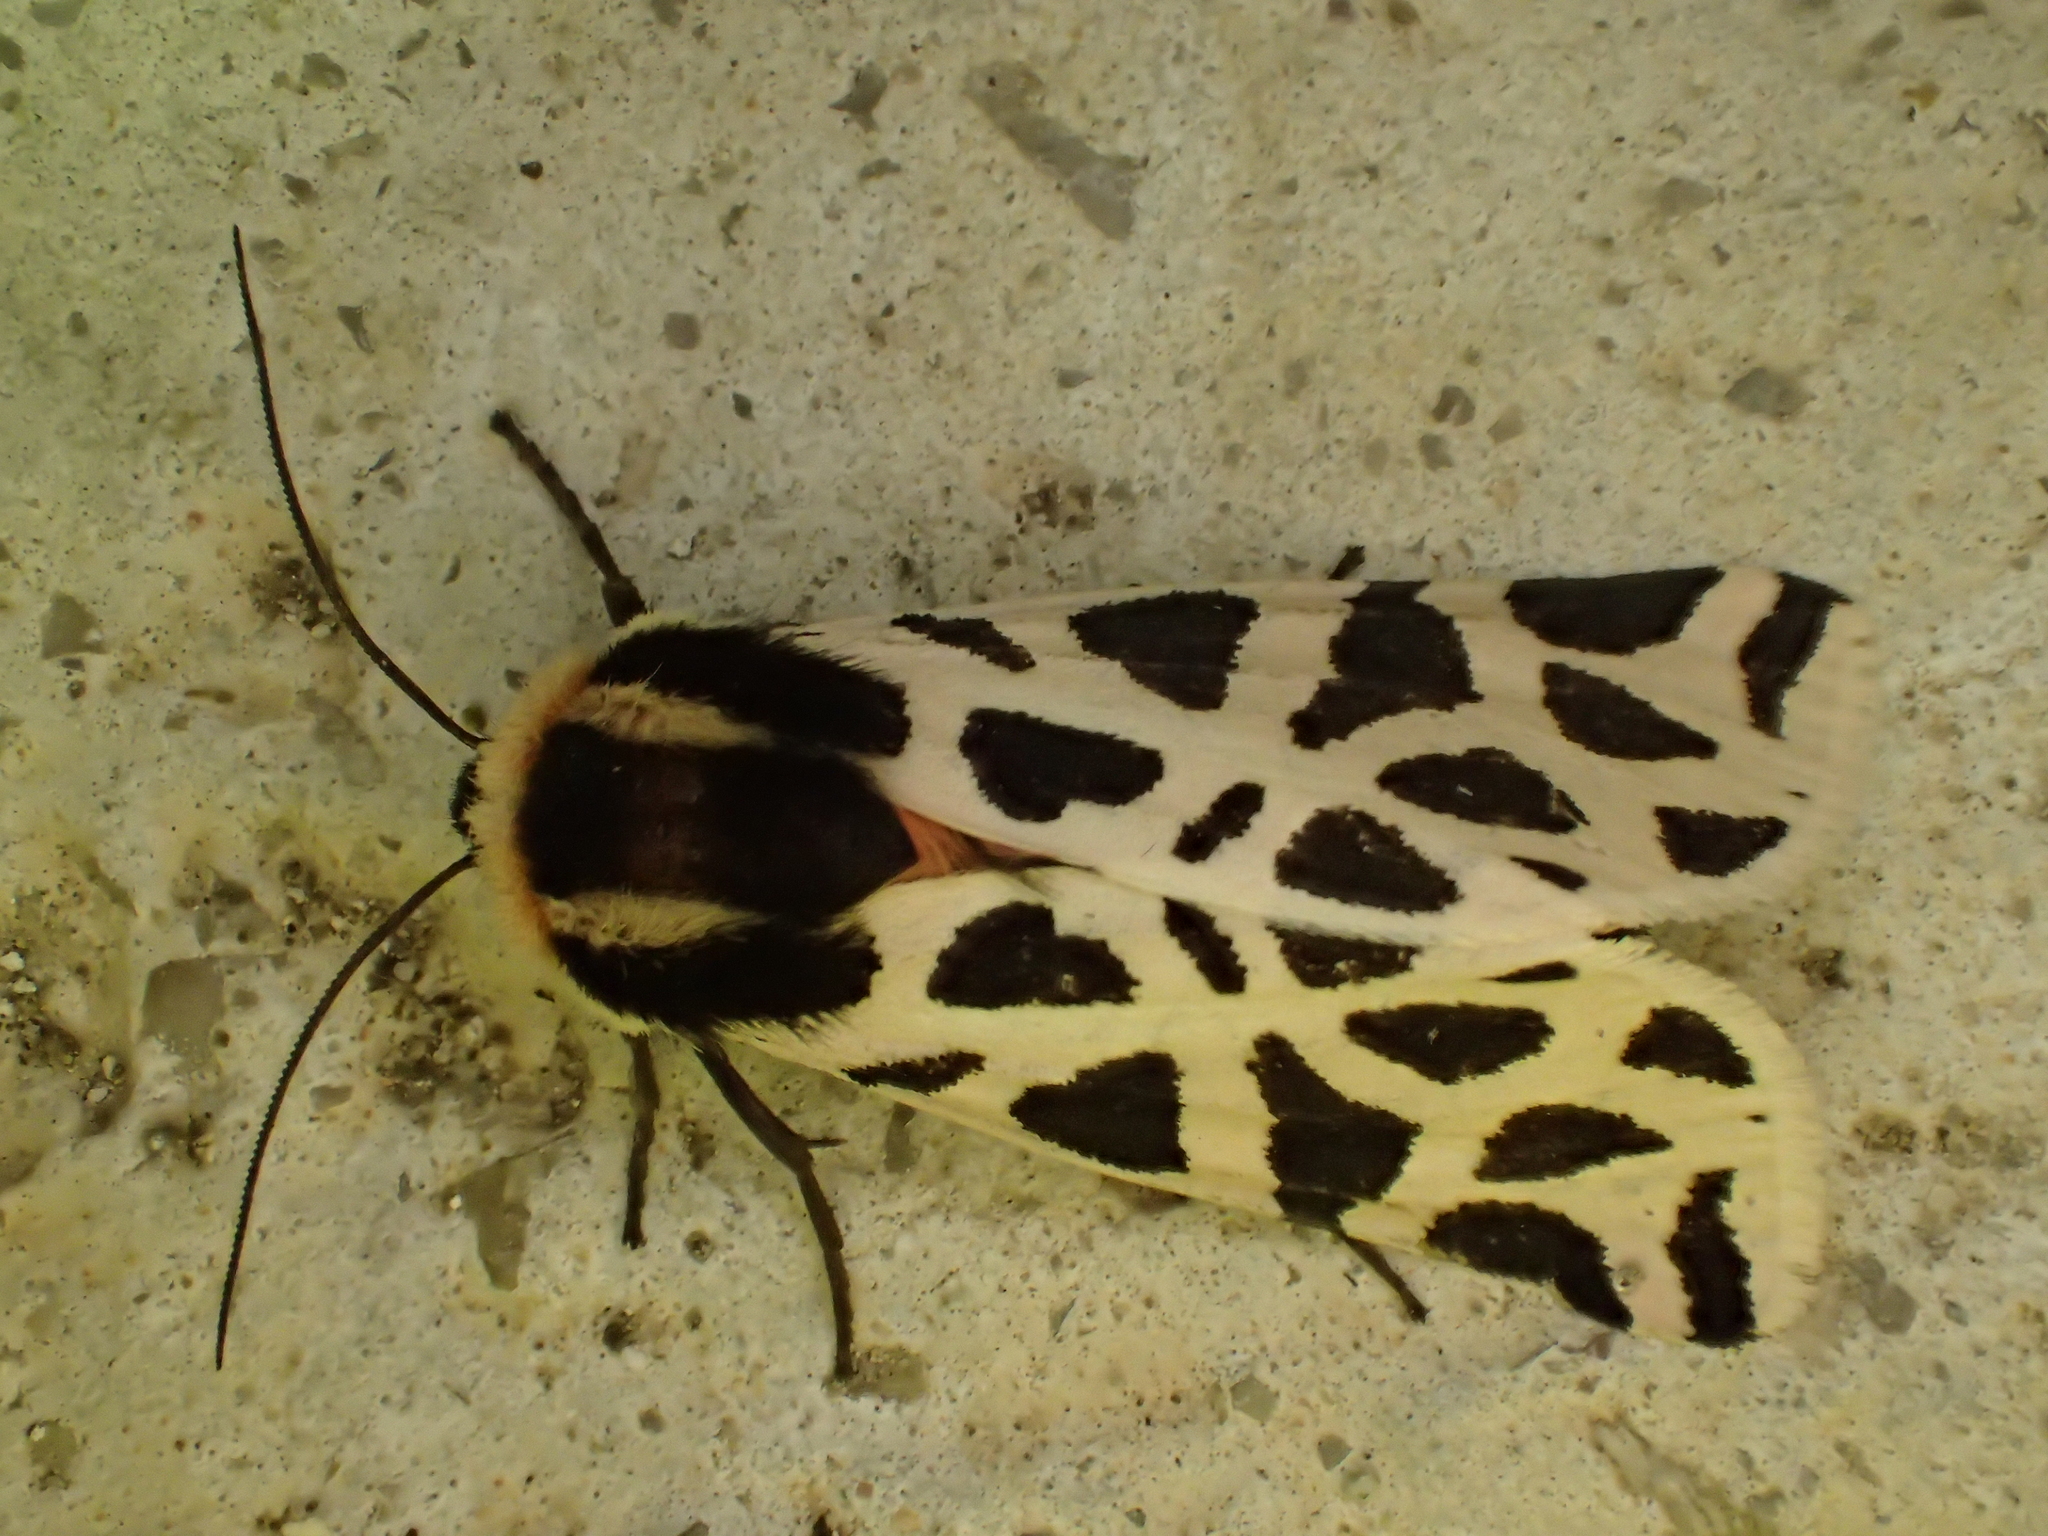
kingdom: Animalia
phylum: Arthropoda
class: Insecta
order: Lepidoptera
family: Erebidae
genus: Cymbalophora
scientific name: Cymbalophora pudica
